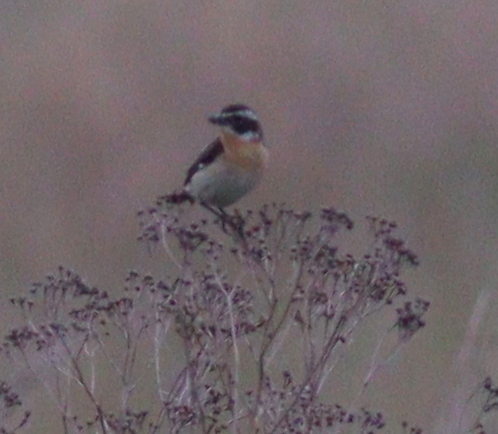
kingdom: Animalia
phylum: Chordata
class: Aves
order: Passeriformes
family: Muscicapidae
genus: Saxicola
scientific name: Saxicola rubetra
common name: Whinchat
